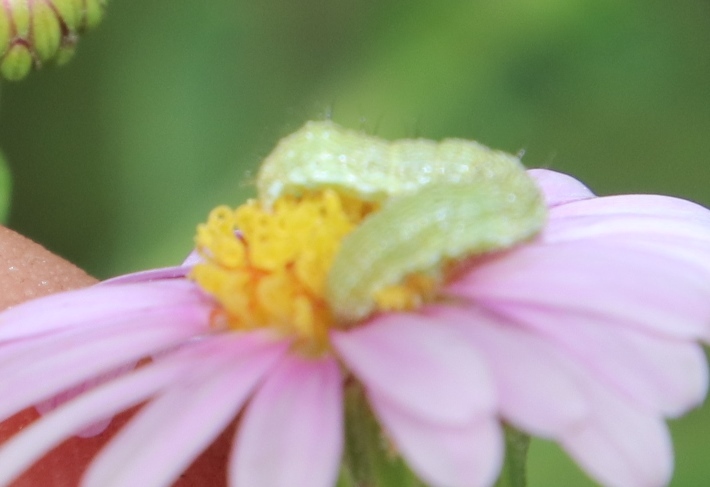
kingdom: Animalia
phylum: Arthropoda
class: Insecta
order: Lepidoptera
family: Noctuidae
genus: Helicoverpa
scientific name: Helicoverpa armigera
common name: Cotton bollworm
